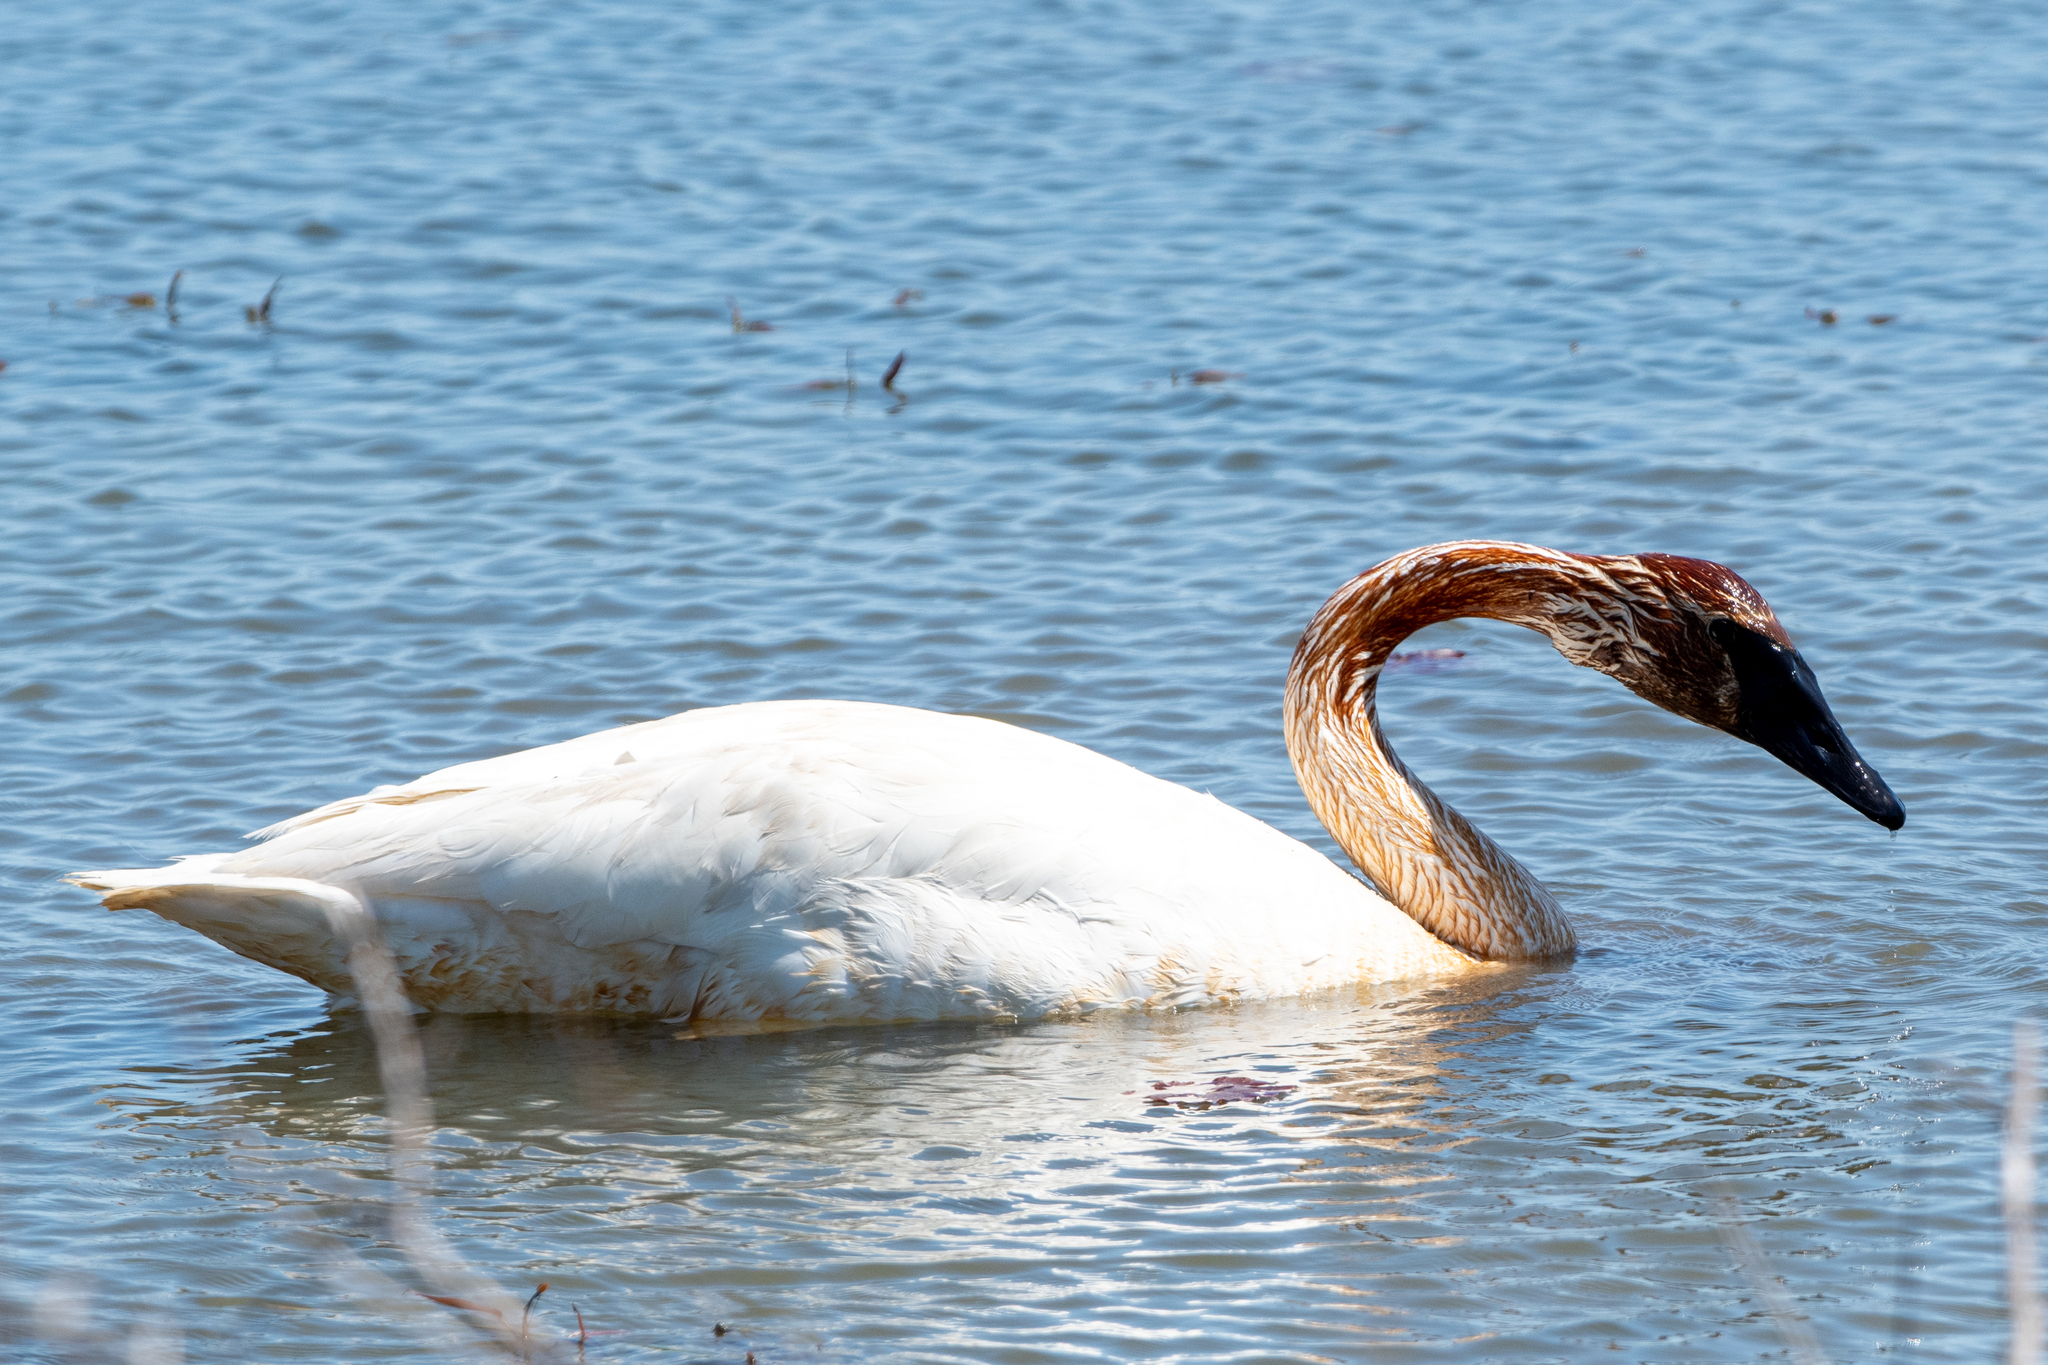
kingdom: Animalia
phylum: Chordata
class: Aves
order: Anseriformes
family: Anatidae
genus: Cygnus
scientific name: Cygnus buccinator
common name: Trumpeter swan
